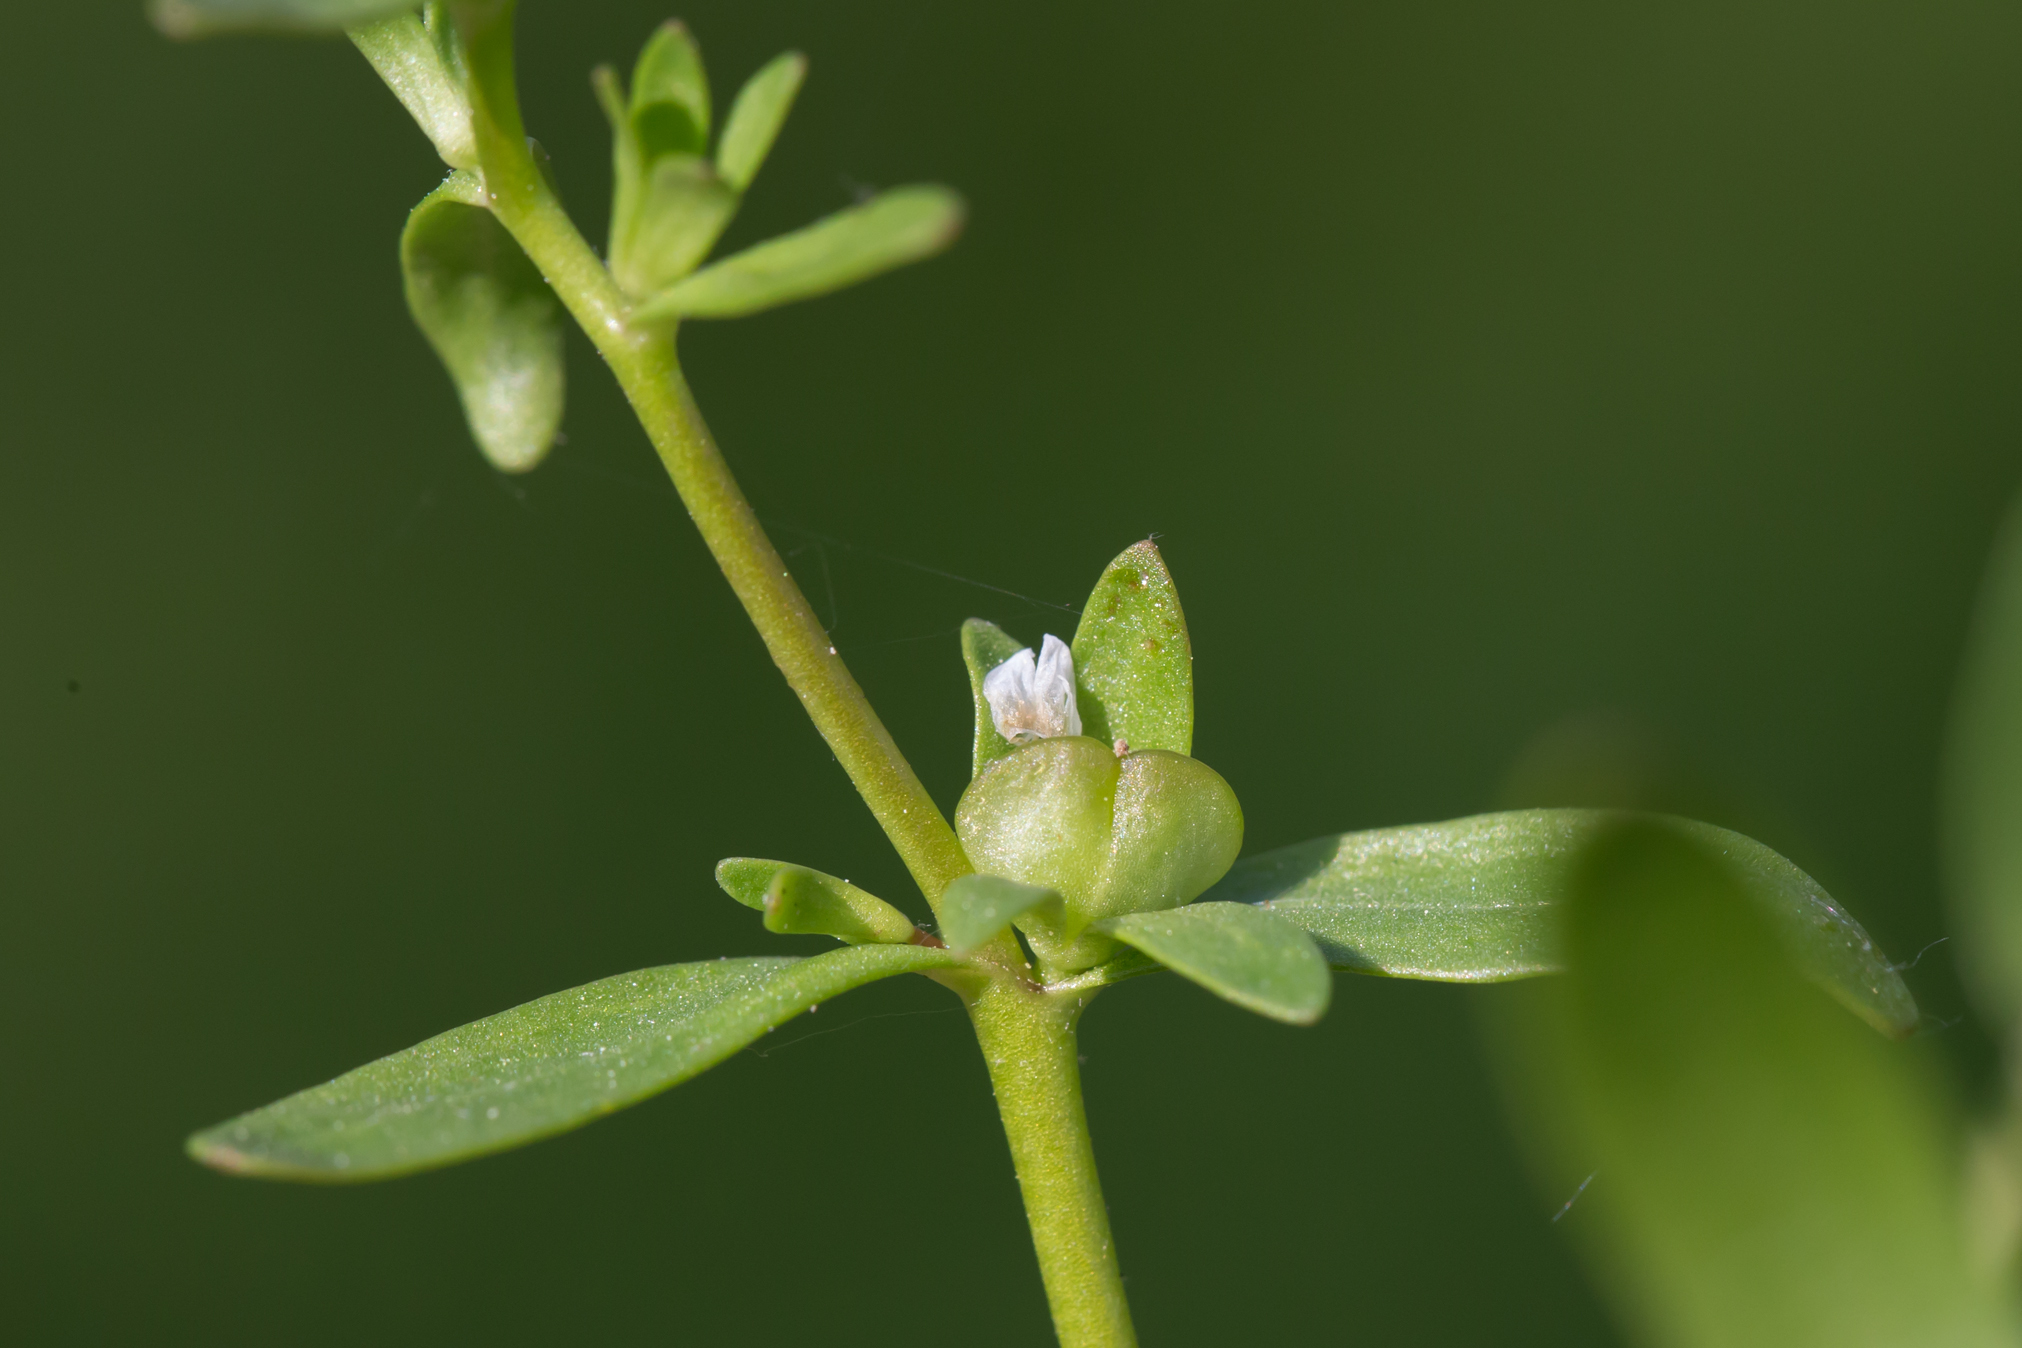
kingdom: Plantae
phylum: Tracheophyta
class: Magnoliopsida
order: Lamiales
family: Plantaginaceae
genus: Veronica
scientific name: Veronica peregrina
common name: Neckweed
